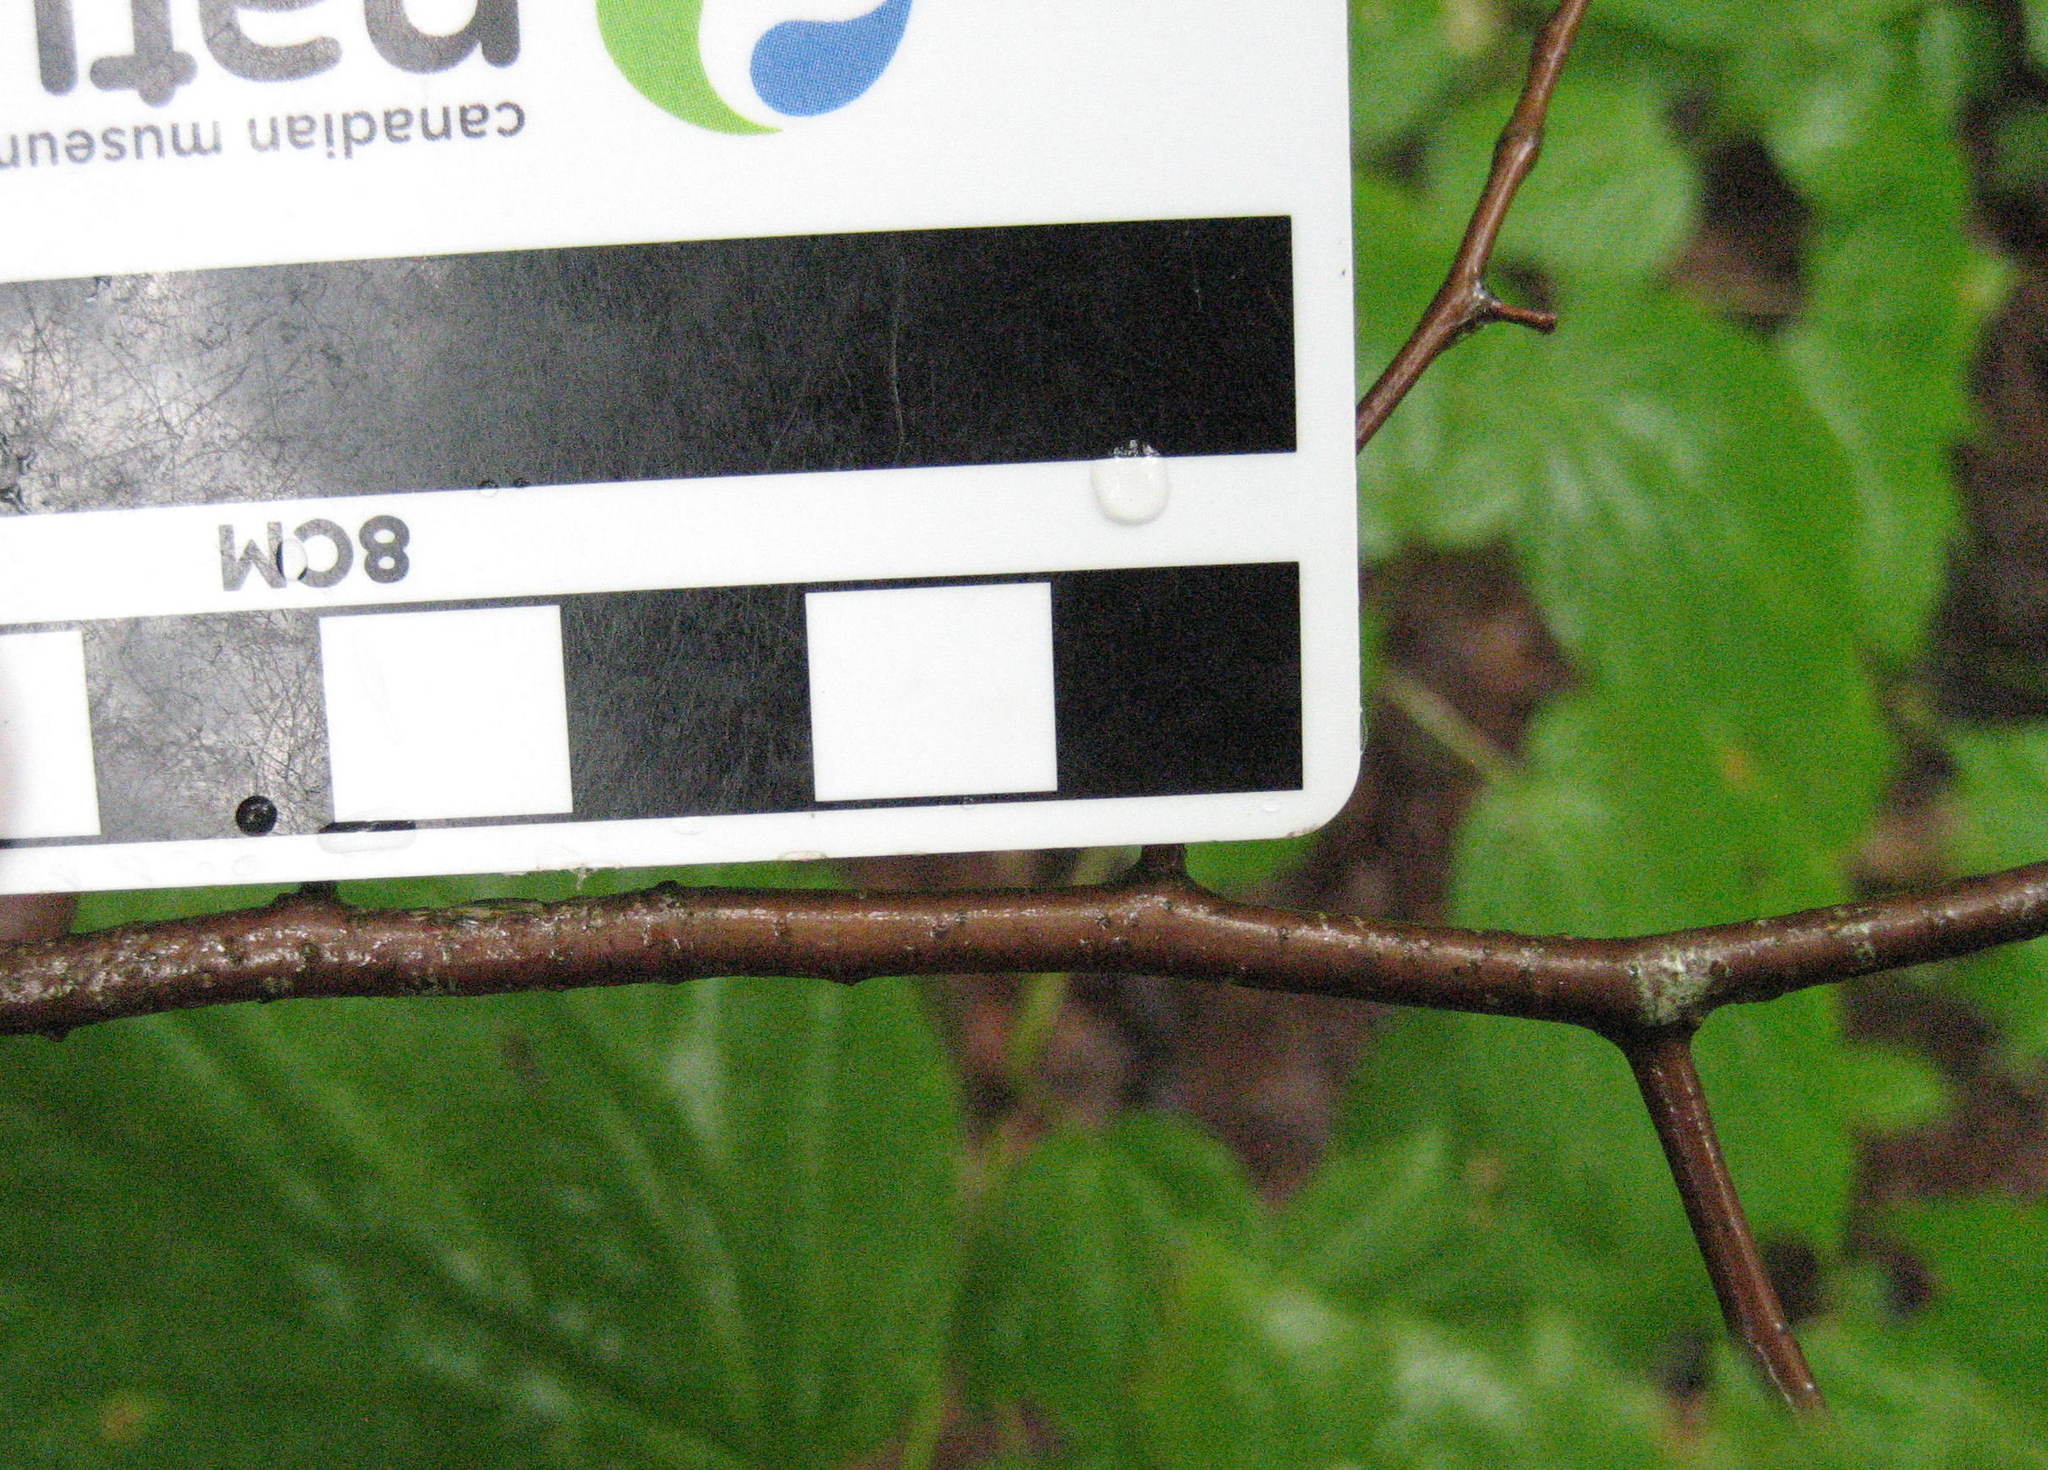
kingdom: Plantae
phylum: Tracheophyta
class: Magnoliopsida
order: Fagales
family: Betulaceae
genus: Ostrya
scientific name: Ostrya virginiana
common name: Ironwood
